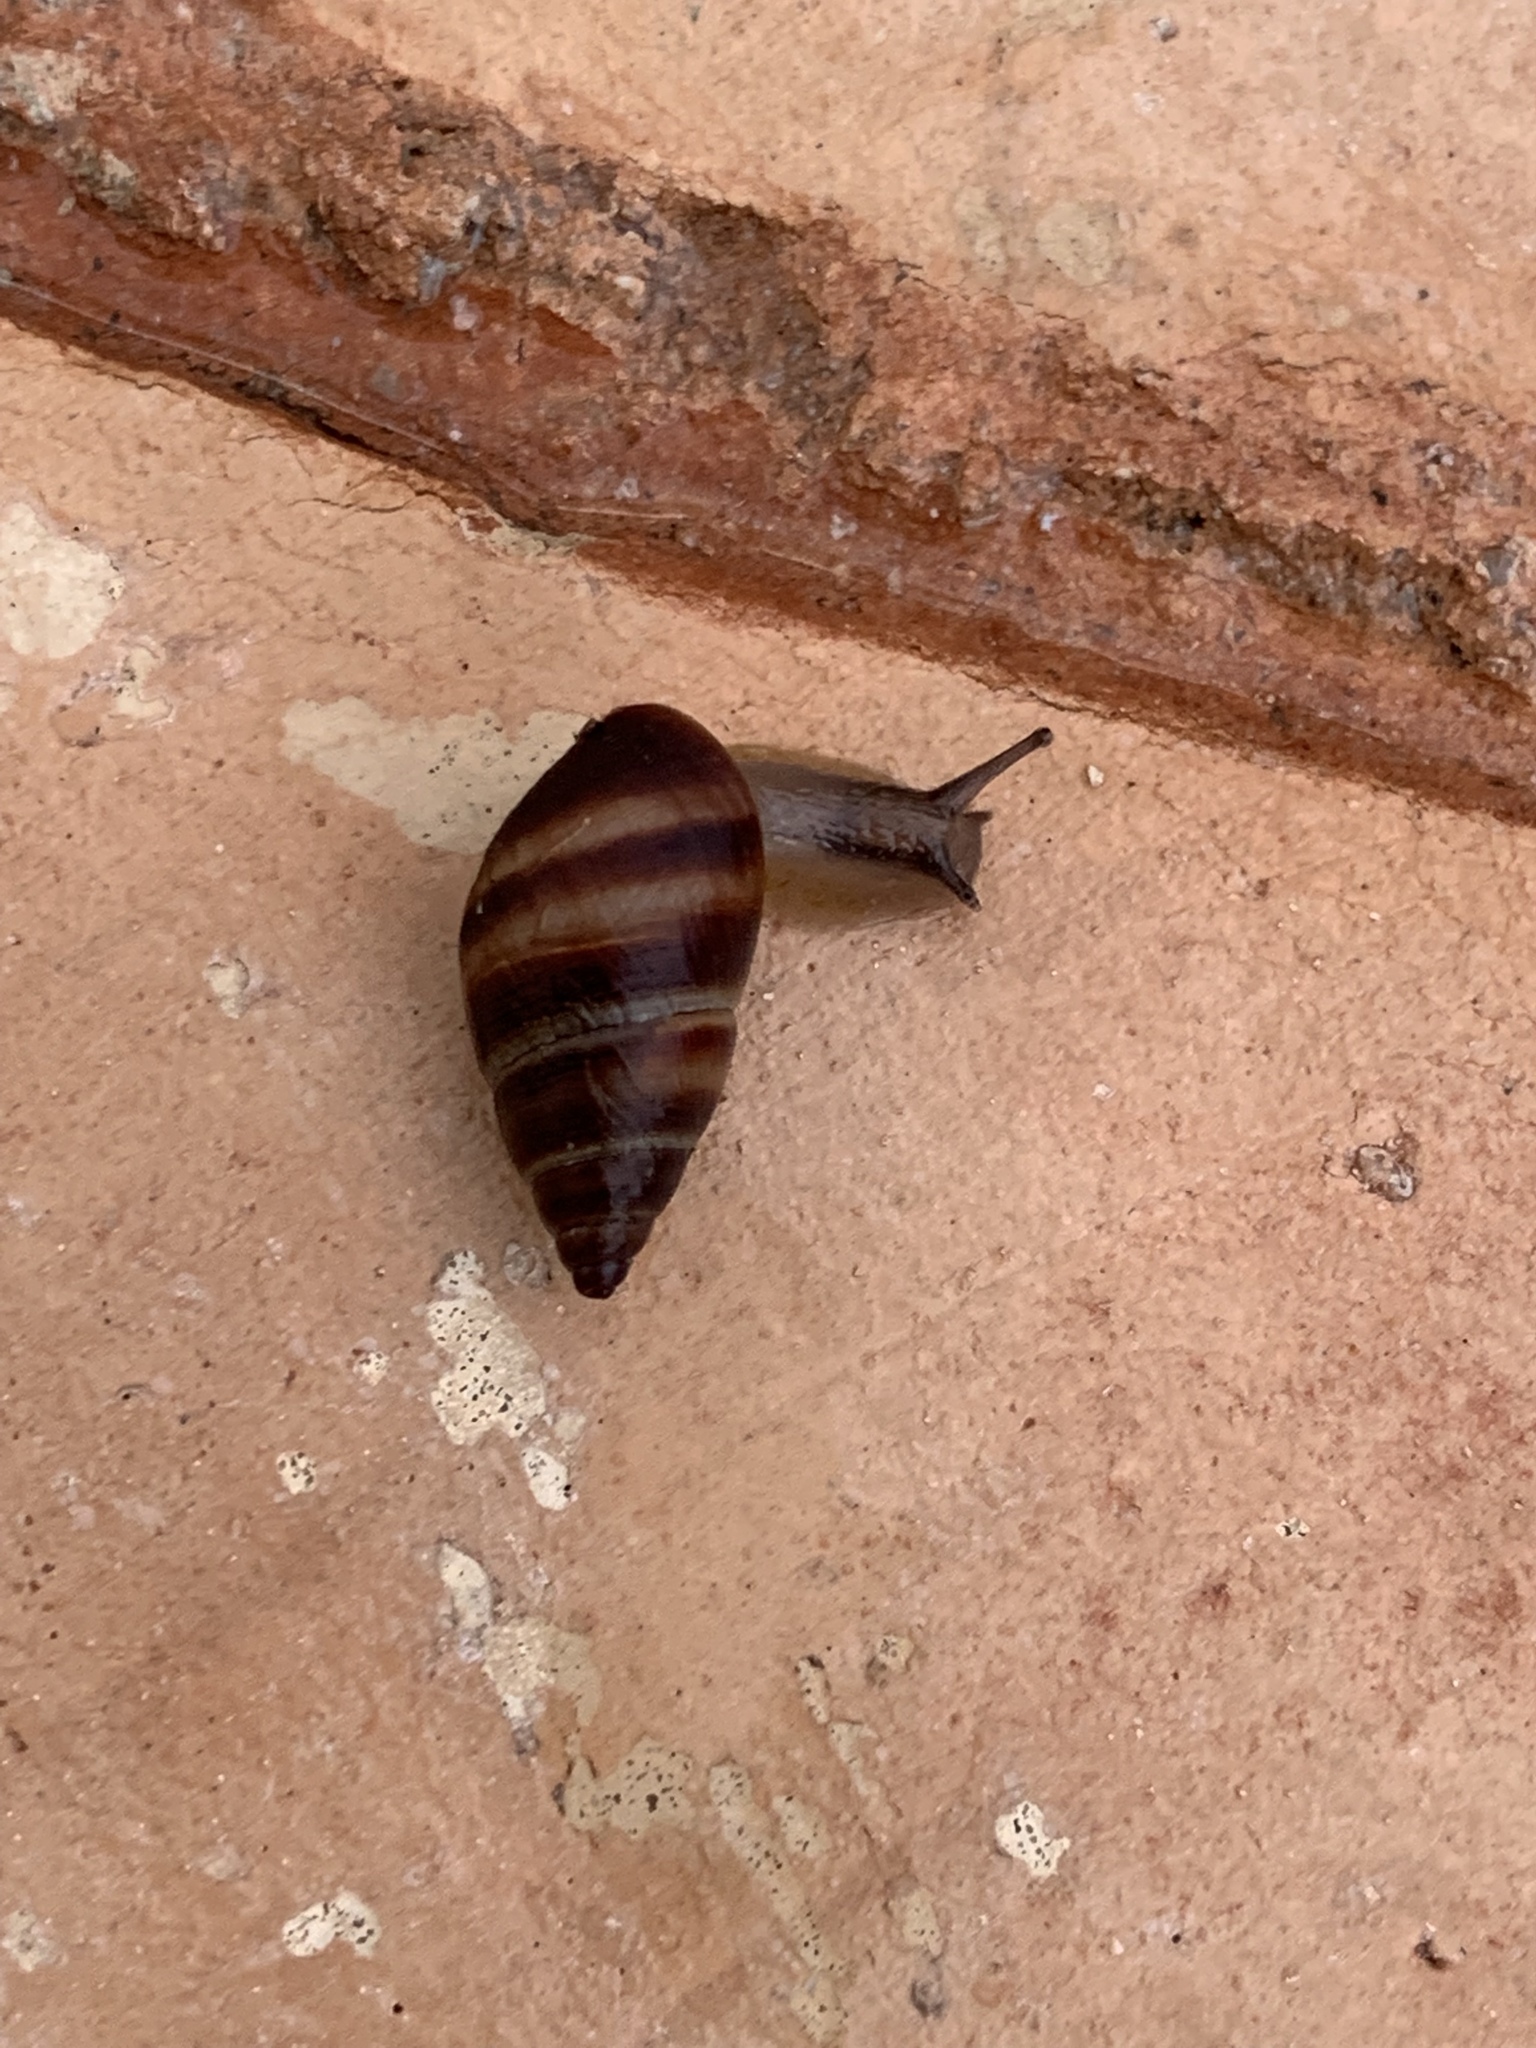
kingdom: Animalia
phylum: Mollusca
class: Gastropoda
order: Stylommatophora
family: Bulimulidae
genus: Bulimulus
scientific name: Bulimulus guadalupensis
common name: West indian bulimulus
